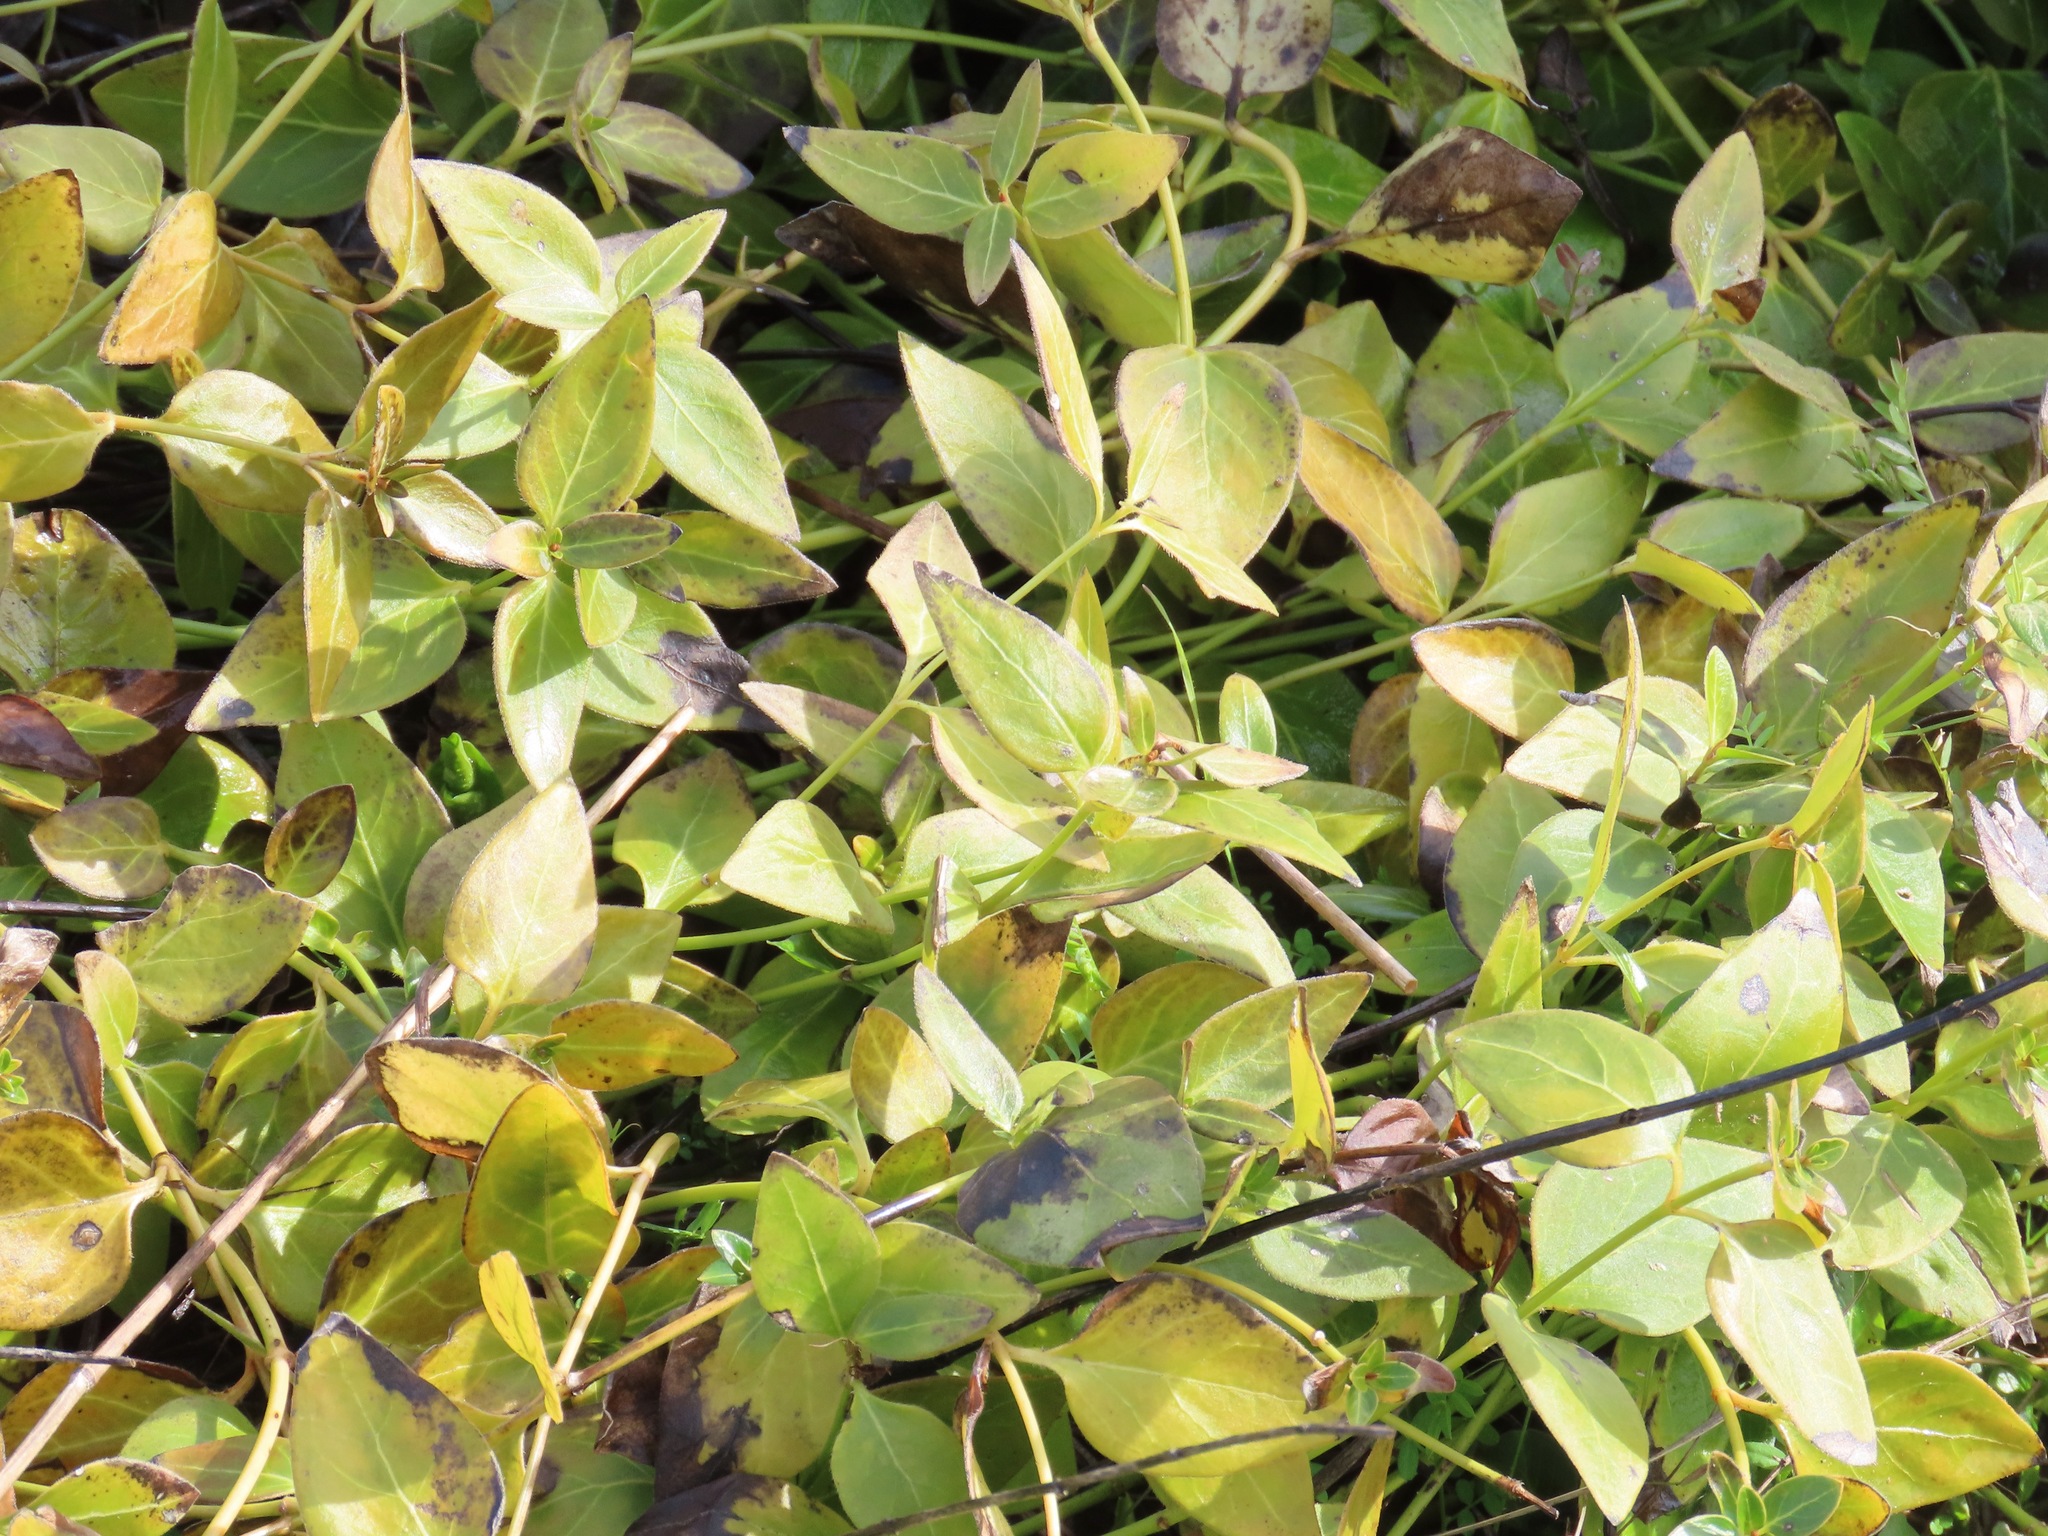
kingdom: Plantae
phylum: Tracheophyta
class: Magnoliopsida
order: Gentianales
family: Apocynaceae
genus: Vinca
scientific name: Vinca major
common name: Greater periwinkle
